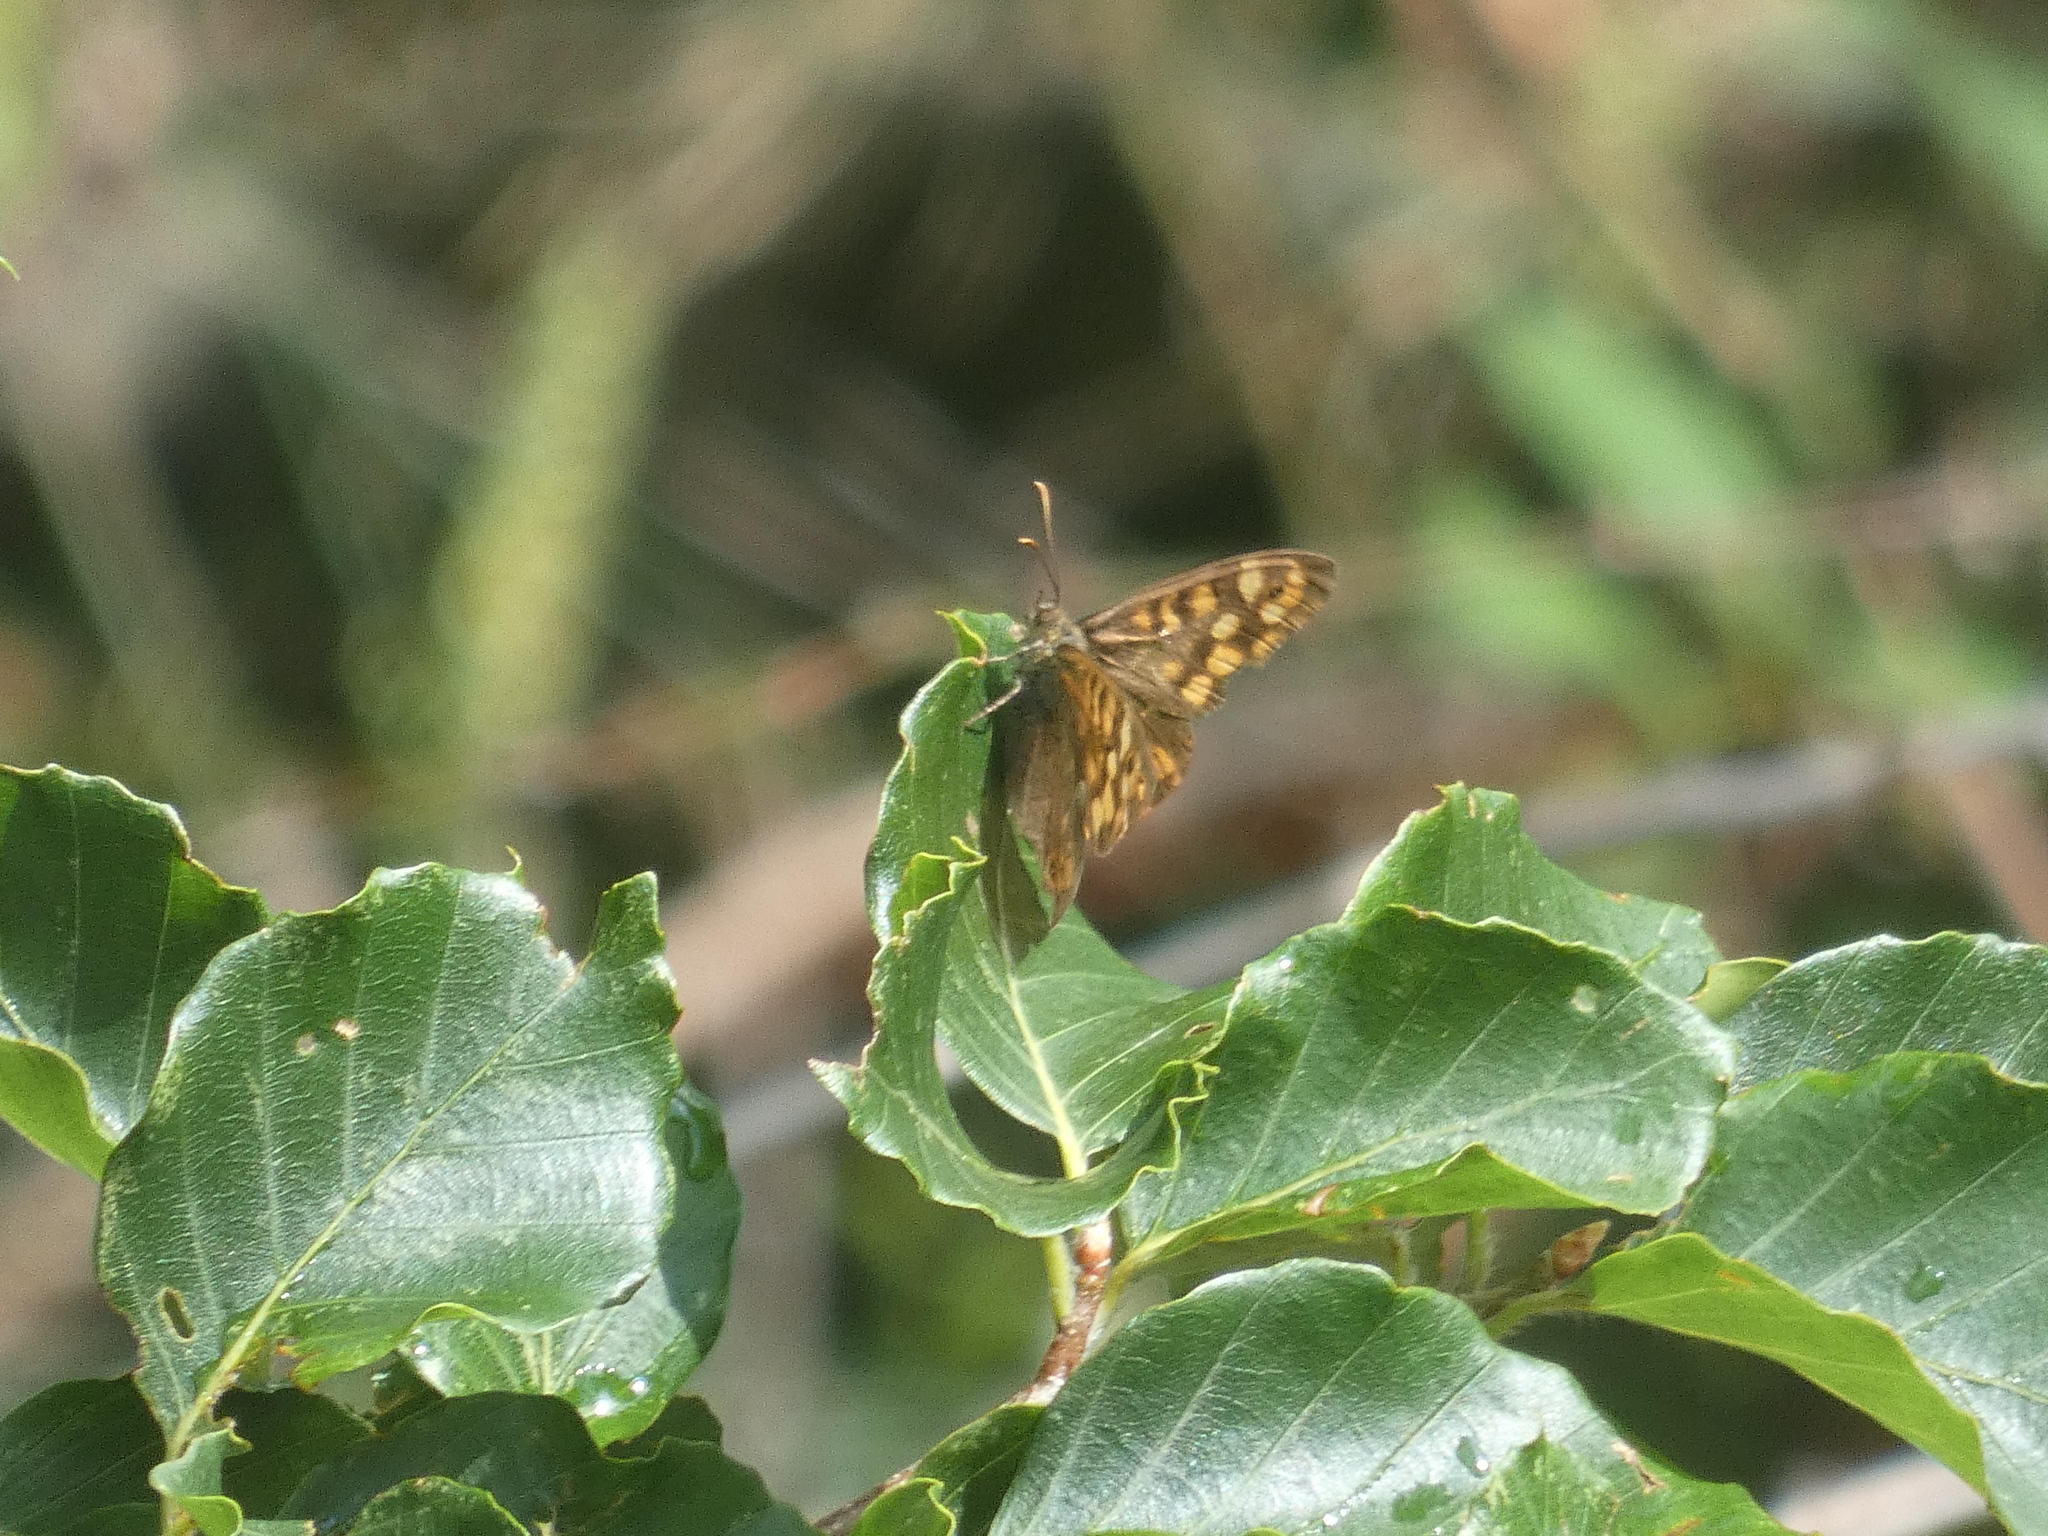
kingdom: Animalia
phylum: Arthropoda
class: Insecta
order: Lepidoptera
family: Nymphalidae
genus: Pararge
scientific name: Pararge aegeria
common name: Speckled wood
